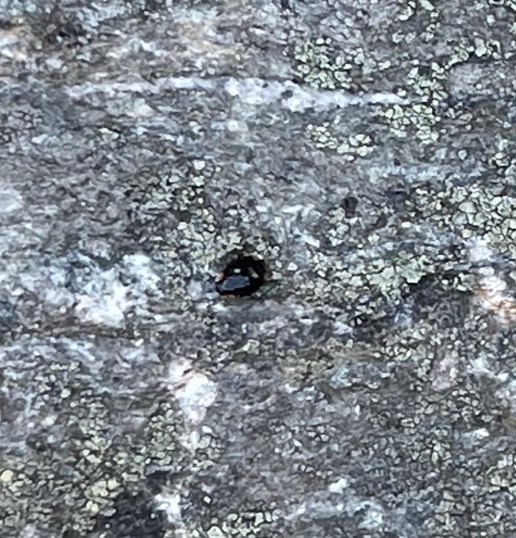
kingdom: Animalia
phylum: Arthropoda
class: Insecta
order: Coleoptera
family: Coccinellidae
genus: Hyperaspis
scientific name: Hyperaspis bigeminata
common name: Bigeminate sigil lady beetle
